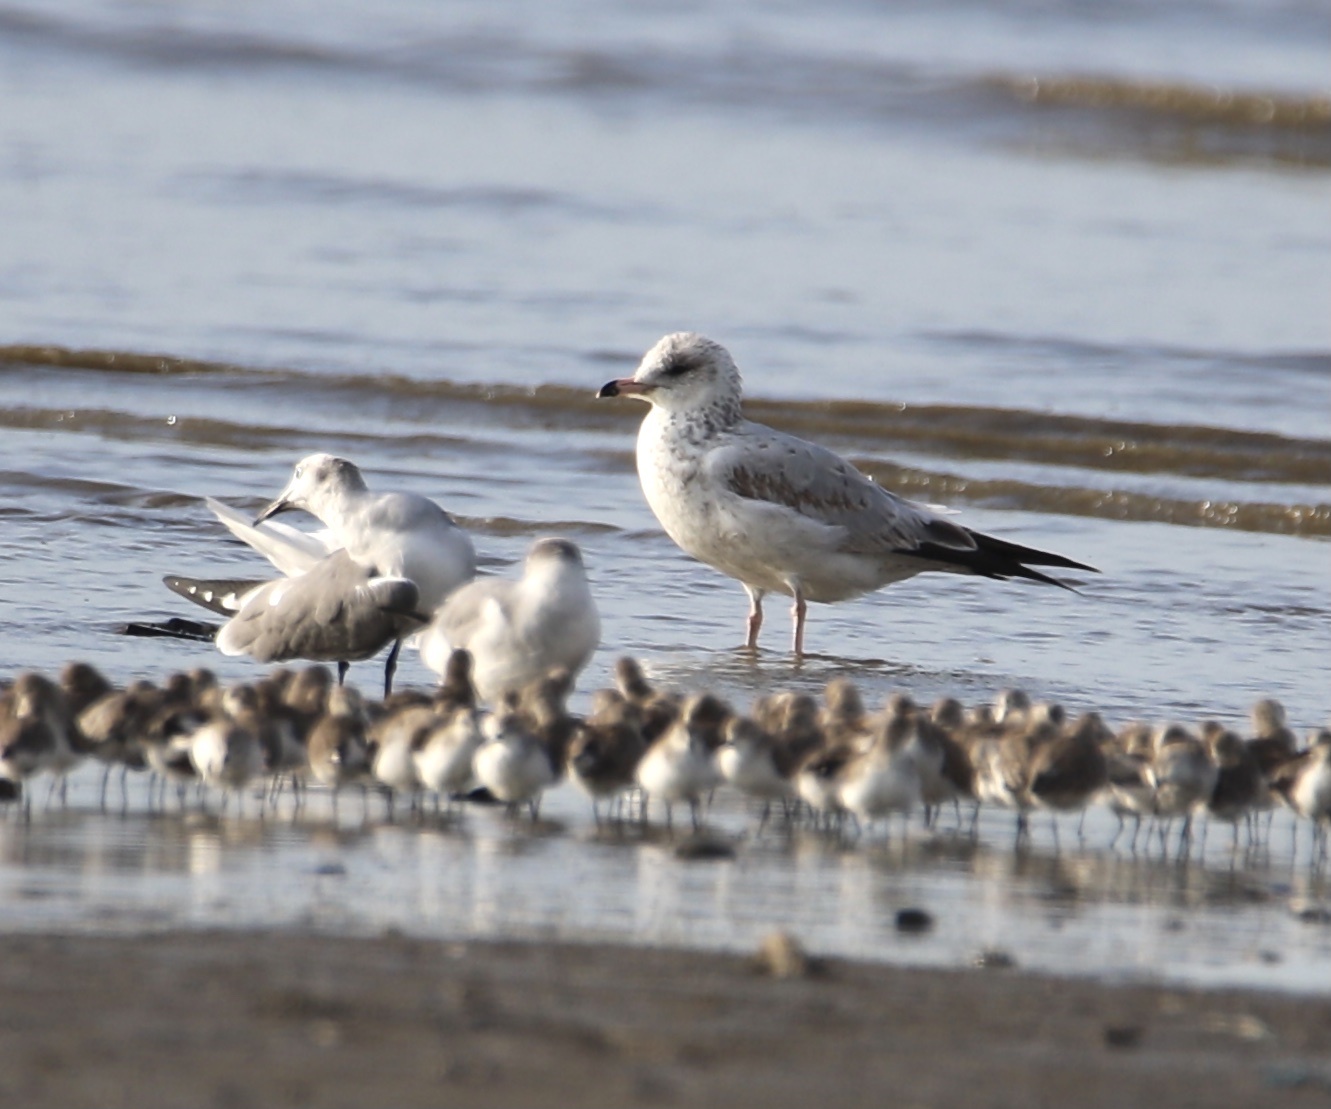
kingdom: Animalia
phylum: Chordata
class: Aves
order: Charadriiformes
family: Laridae
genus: Larus
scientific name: Larus delawarensis
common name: Ring-billed gull
